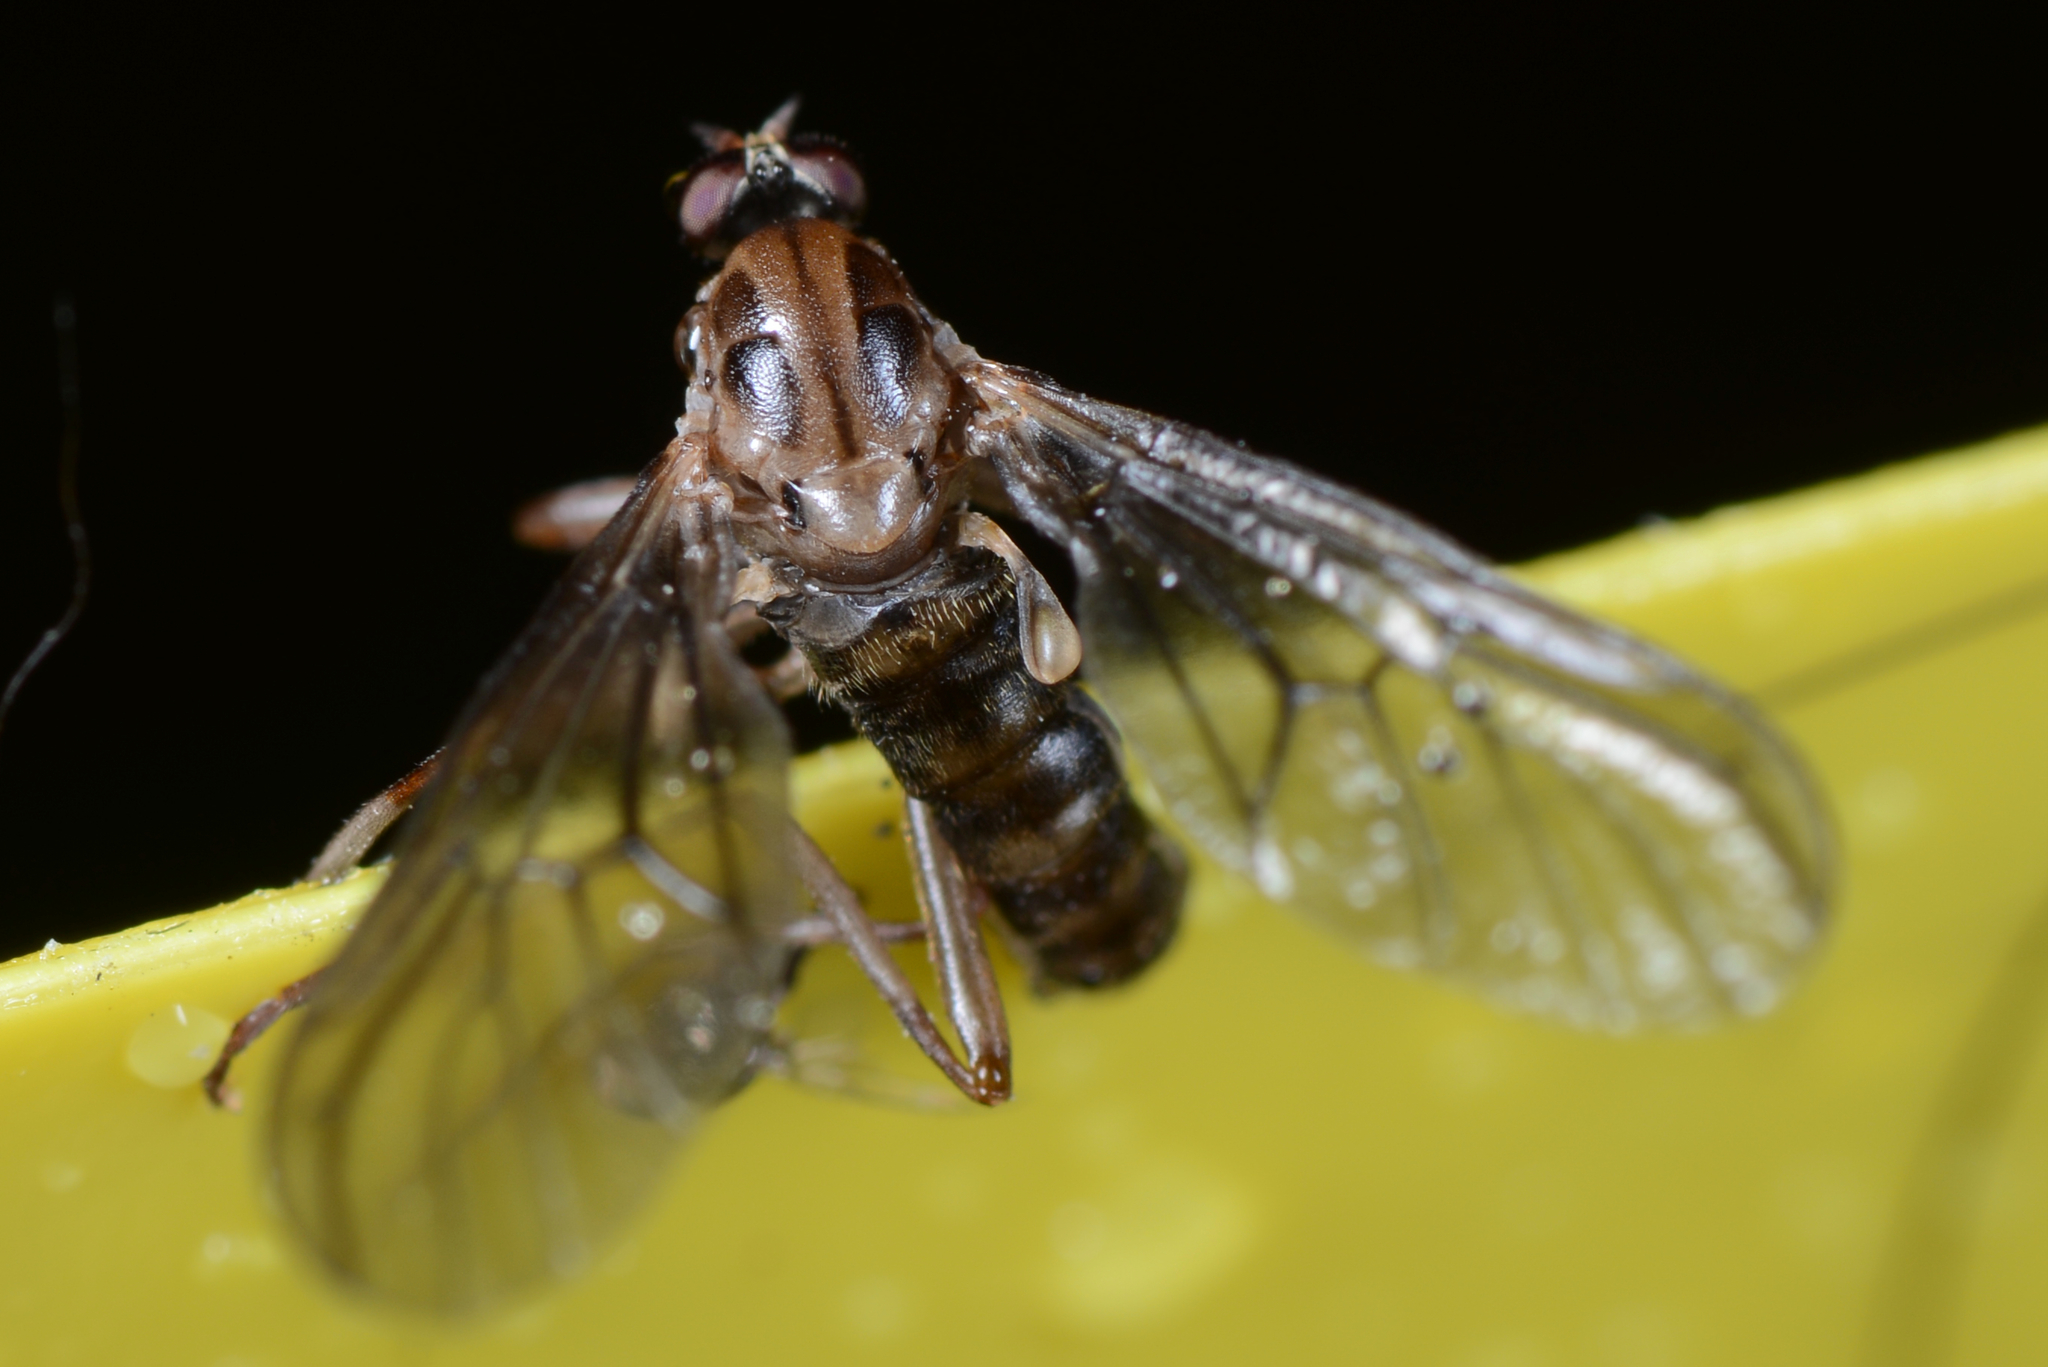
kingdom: Animalia
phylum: Arthropoda
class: Insecta
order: Diptera
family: Stratiomyidae
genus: Boreoides
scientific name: Boreoides tasmaniensis
